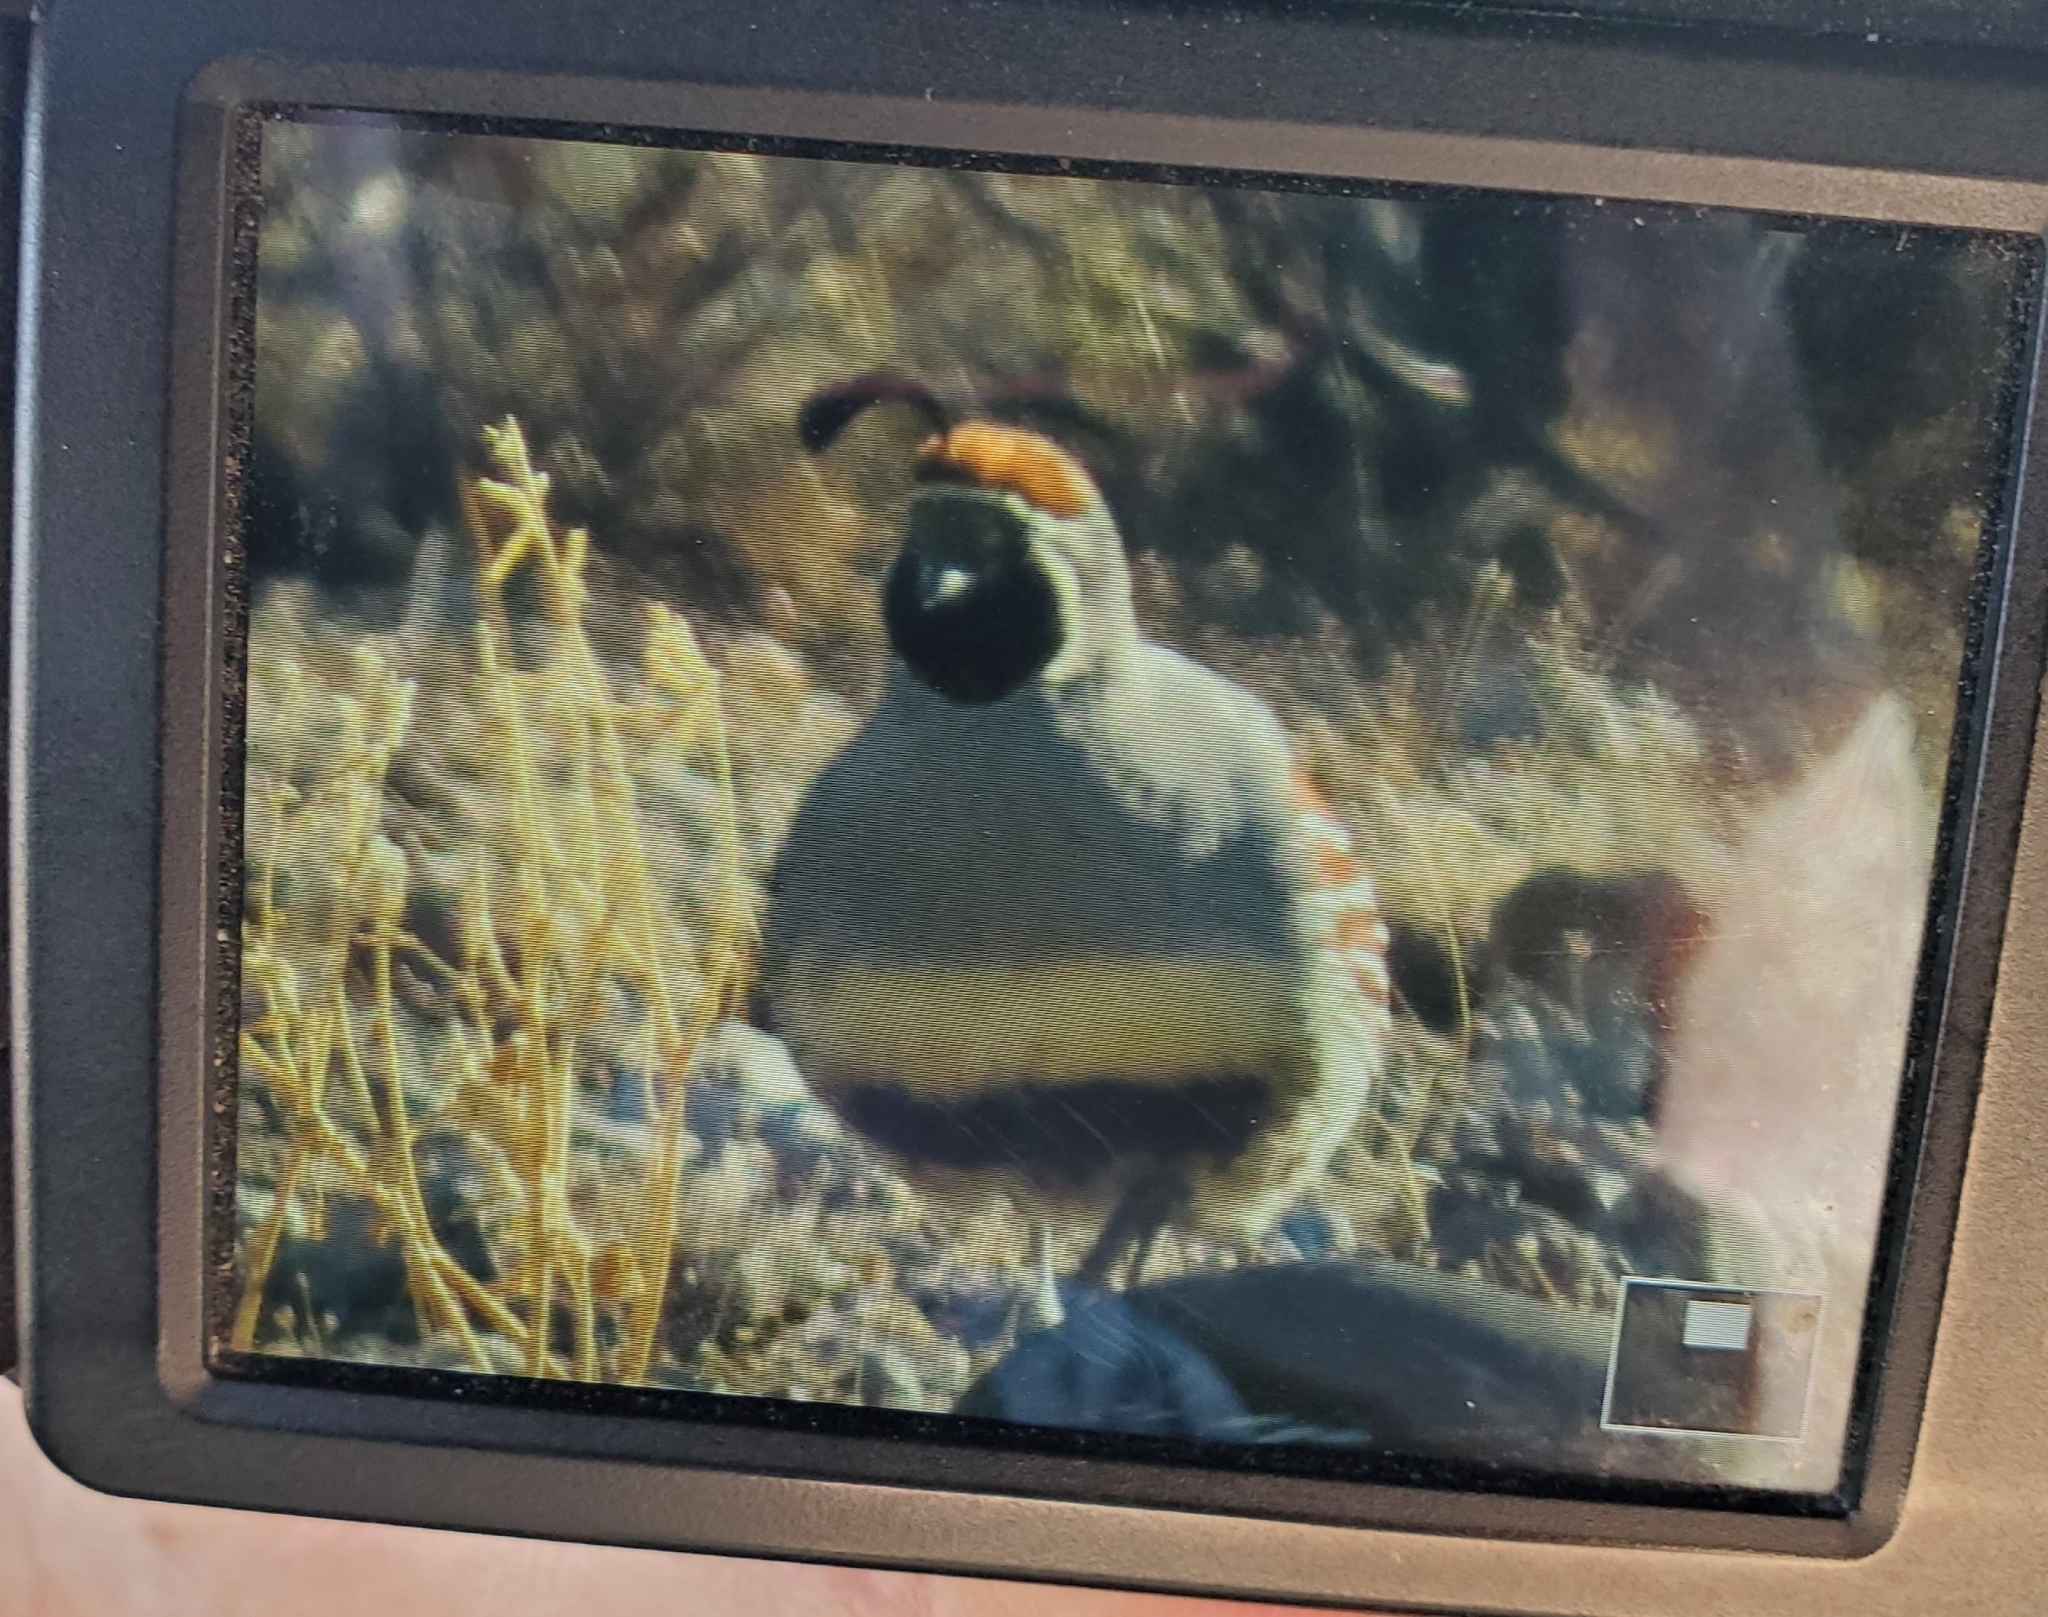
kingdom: Animalia
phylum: Chordata
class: Aves
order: Galliformes
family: Odontophoridae
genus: Callipepla
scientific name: Callipepla gambelii
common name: Gambel's quail
